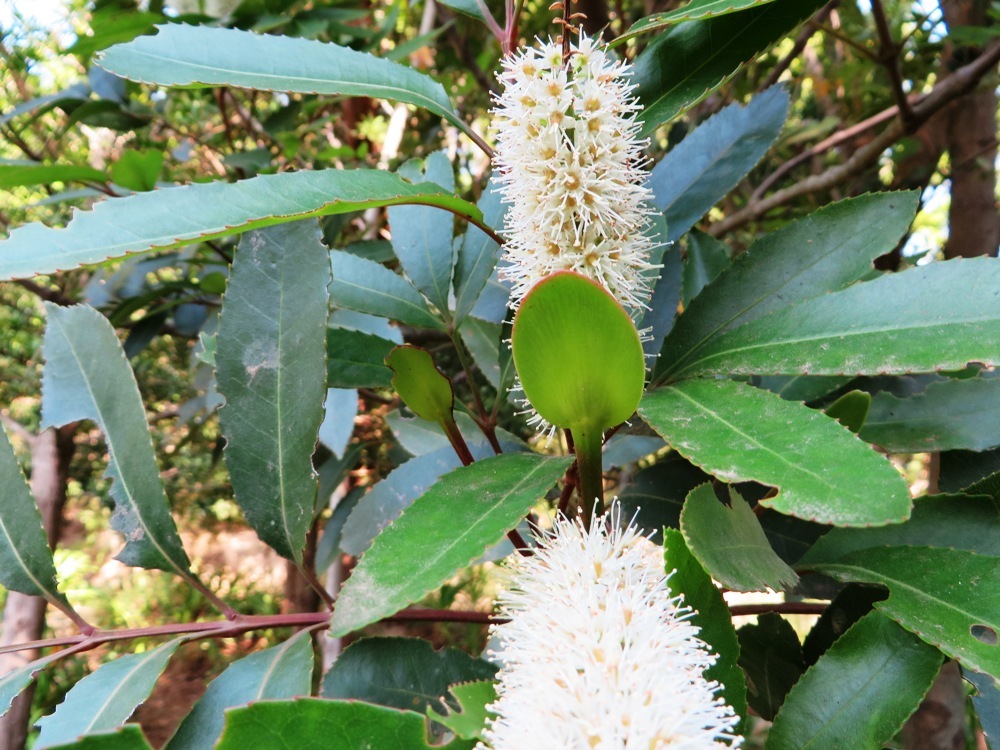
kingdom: Plantae
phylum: Tracheophyta
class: Magnoliopsida
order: Oxalidales
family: Cunoniaceae
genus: Cunonia
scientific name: Cunonia capensis
